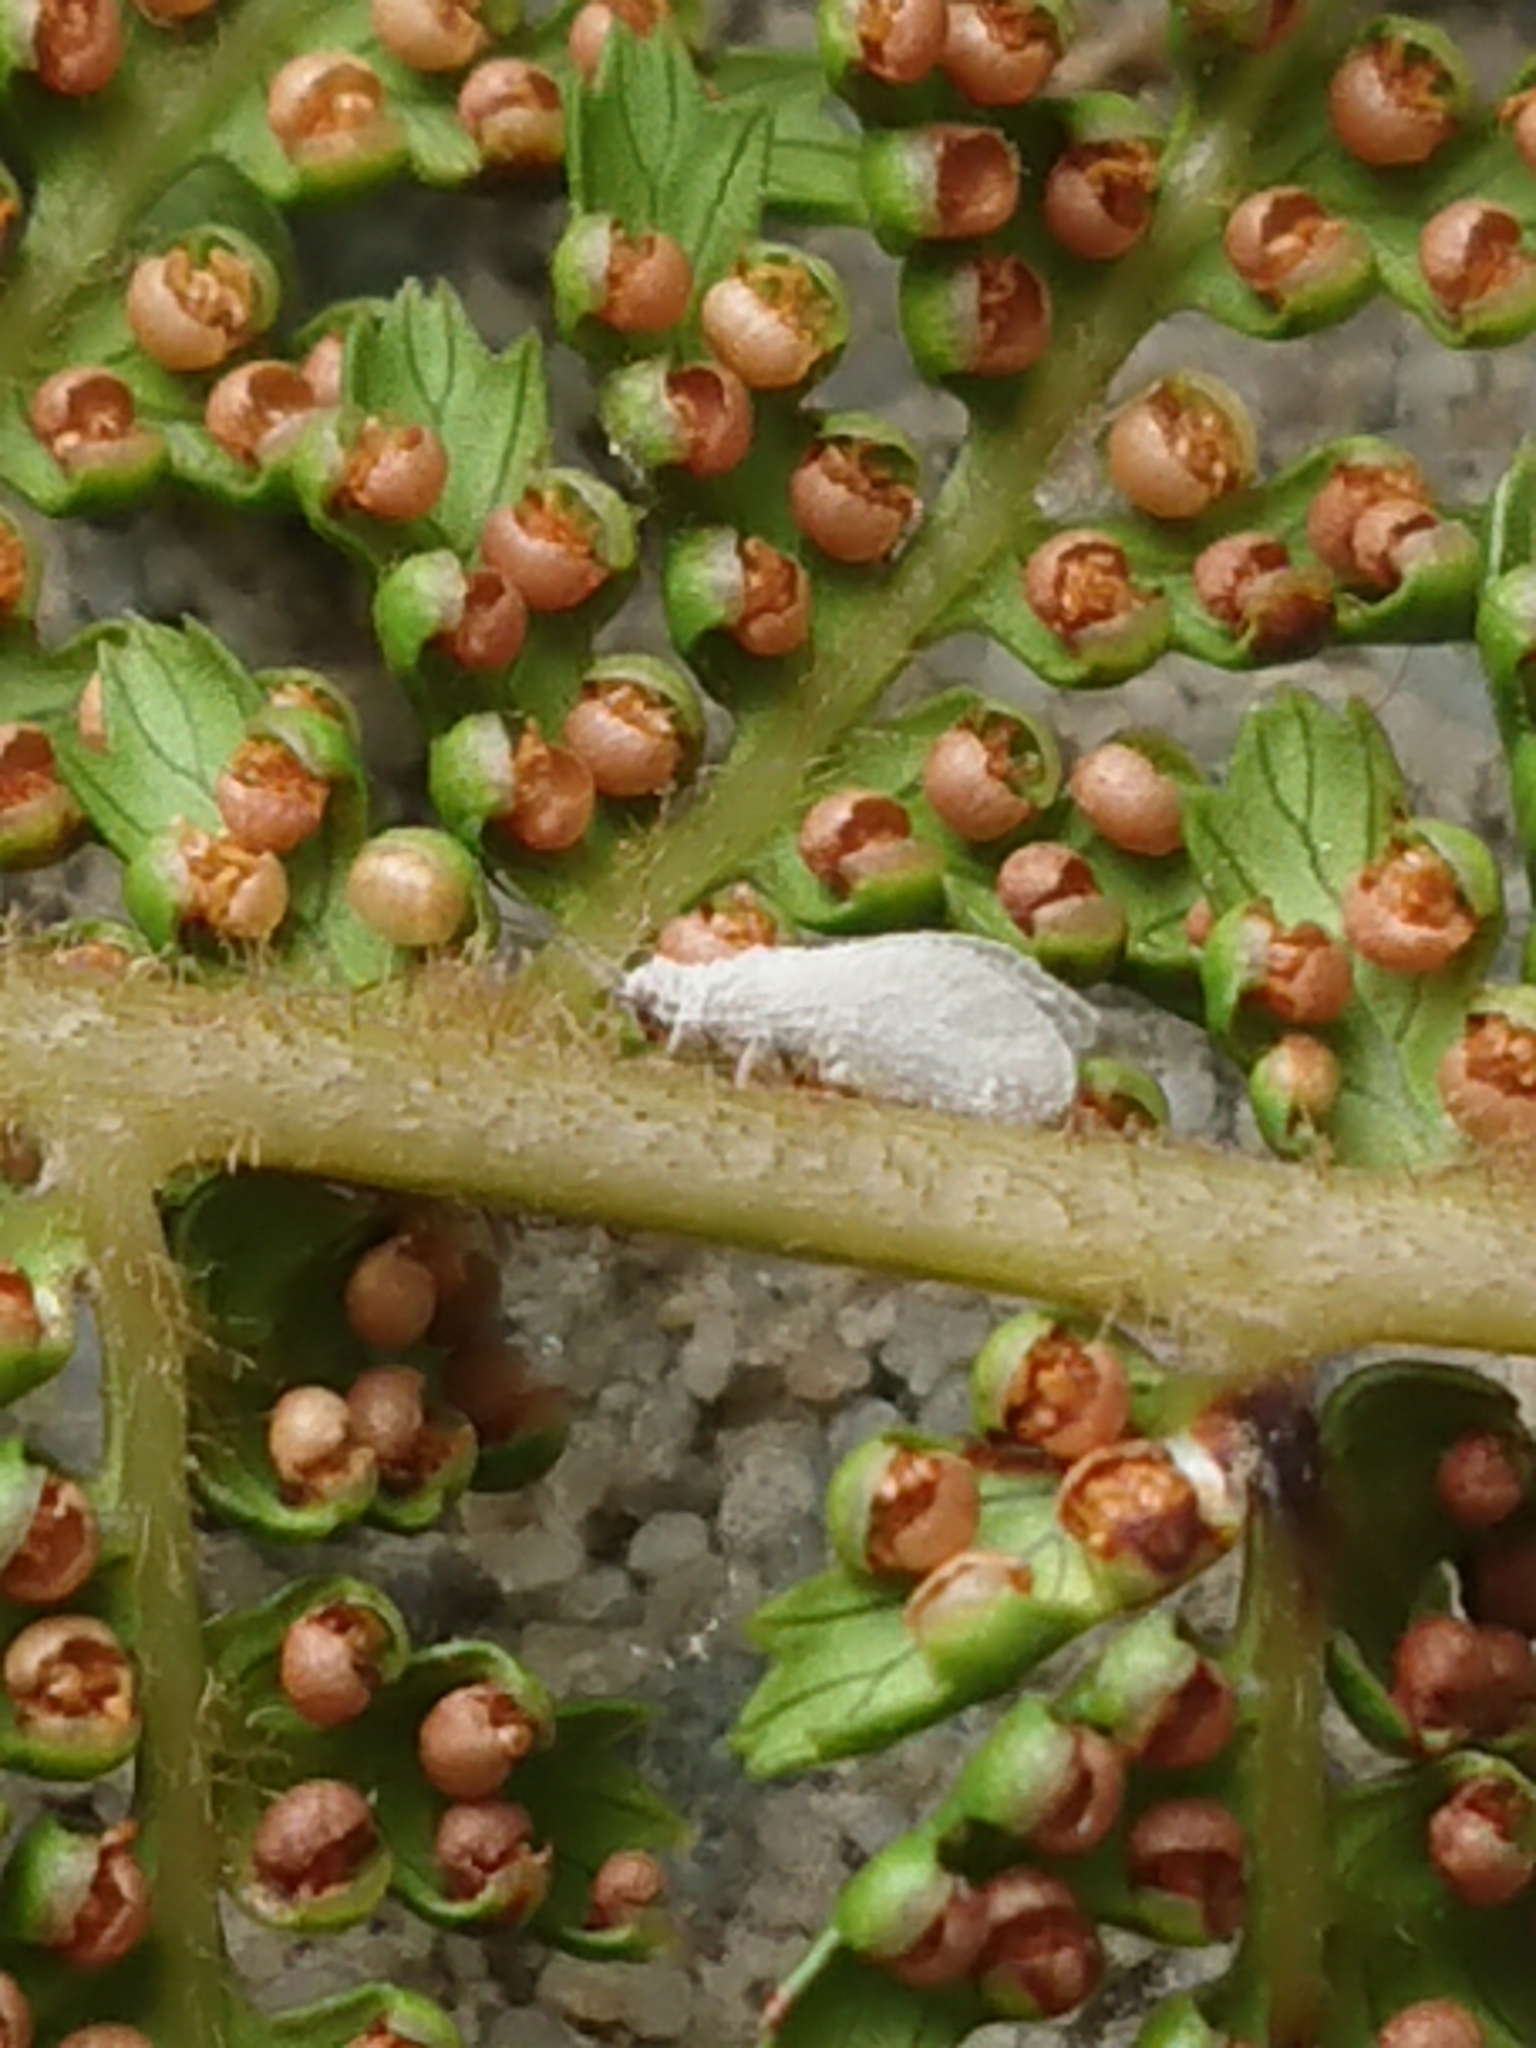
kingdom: Animalia
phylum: Arthropoda
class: Insecta
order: Neuroptera
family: Coniopterygidae
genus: Cryptoscenea
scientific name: Cryptoscenea australiensis
